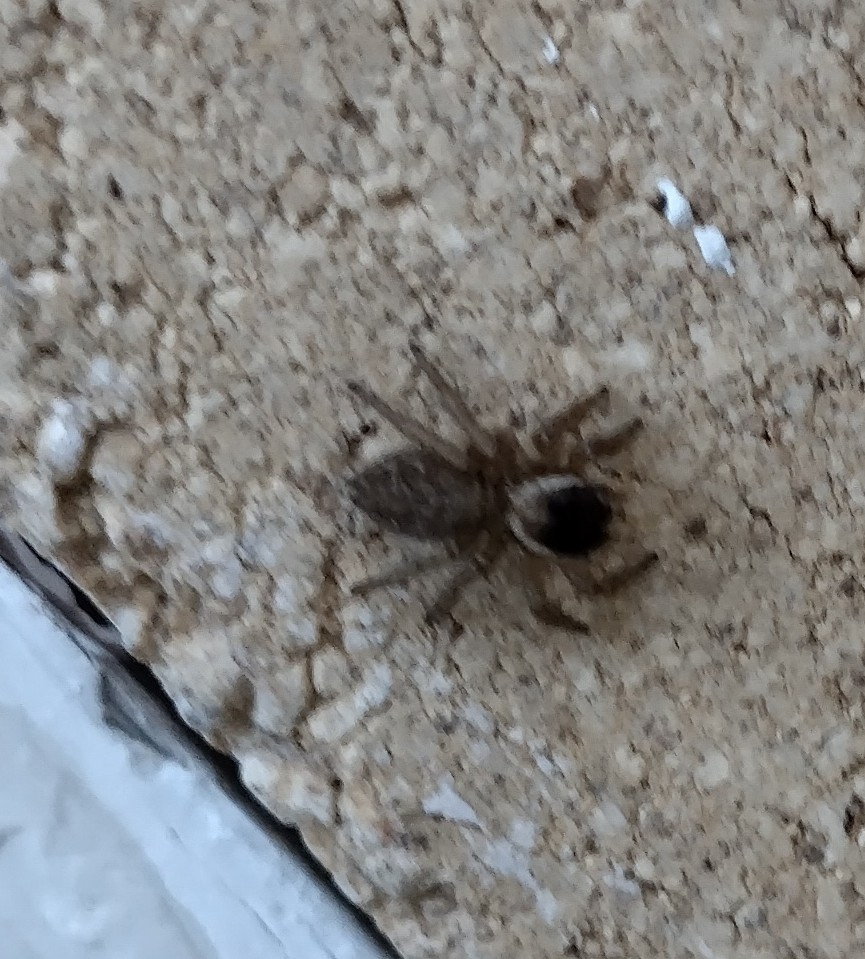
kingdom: Animalia
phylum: Arthropoda
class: Arachnida
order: Araneae
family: Salticidae
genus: Maratus
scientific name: Maratus griseus
